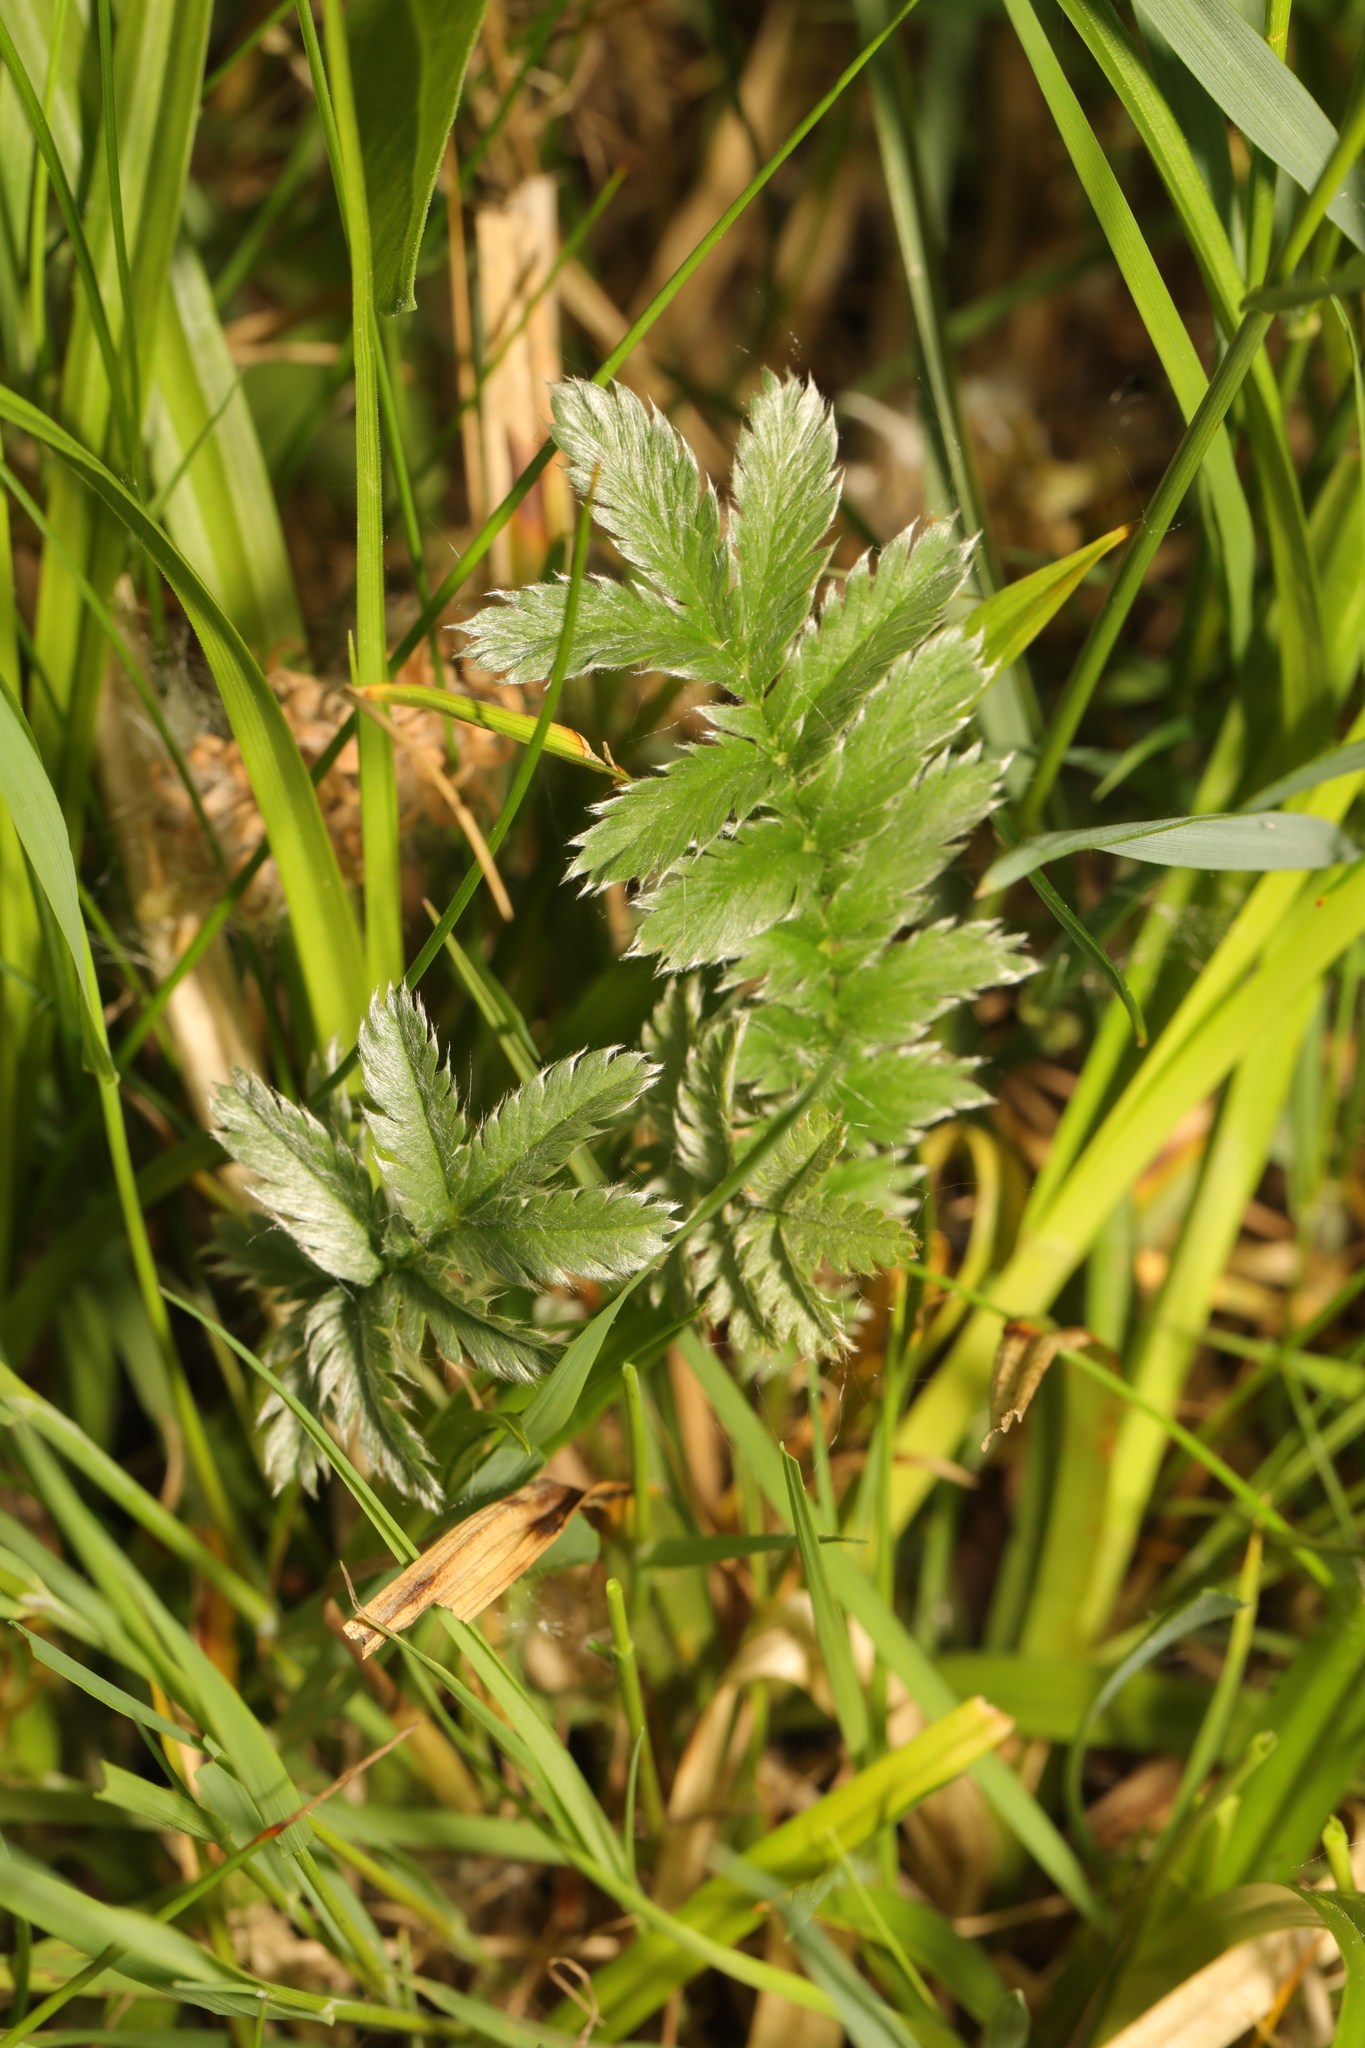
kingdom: Plantae
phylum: Tracheophyta
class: Magnoliopsida
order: Rosales
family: Rosaceae
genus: Argentina
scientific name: Argentina anserina
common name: Common silverweed
